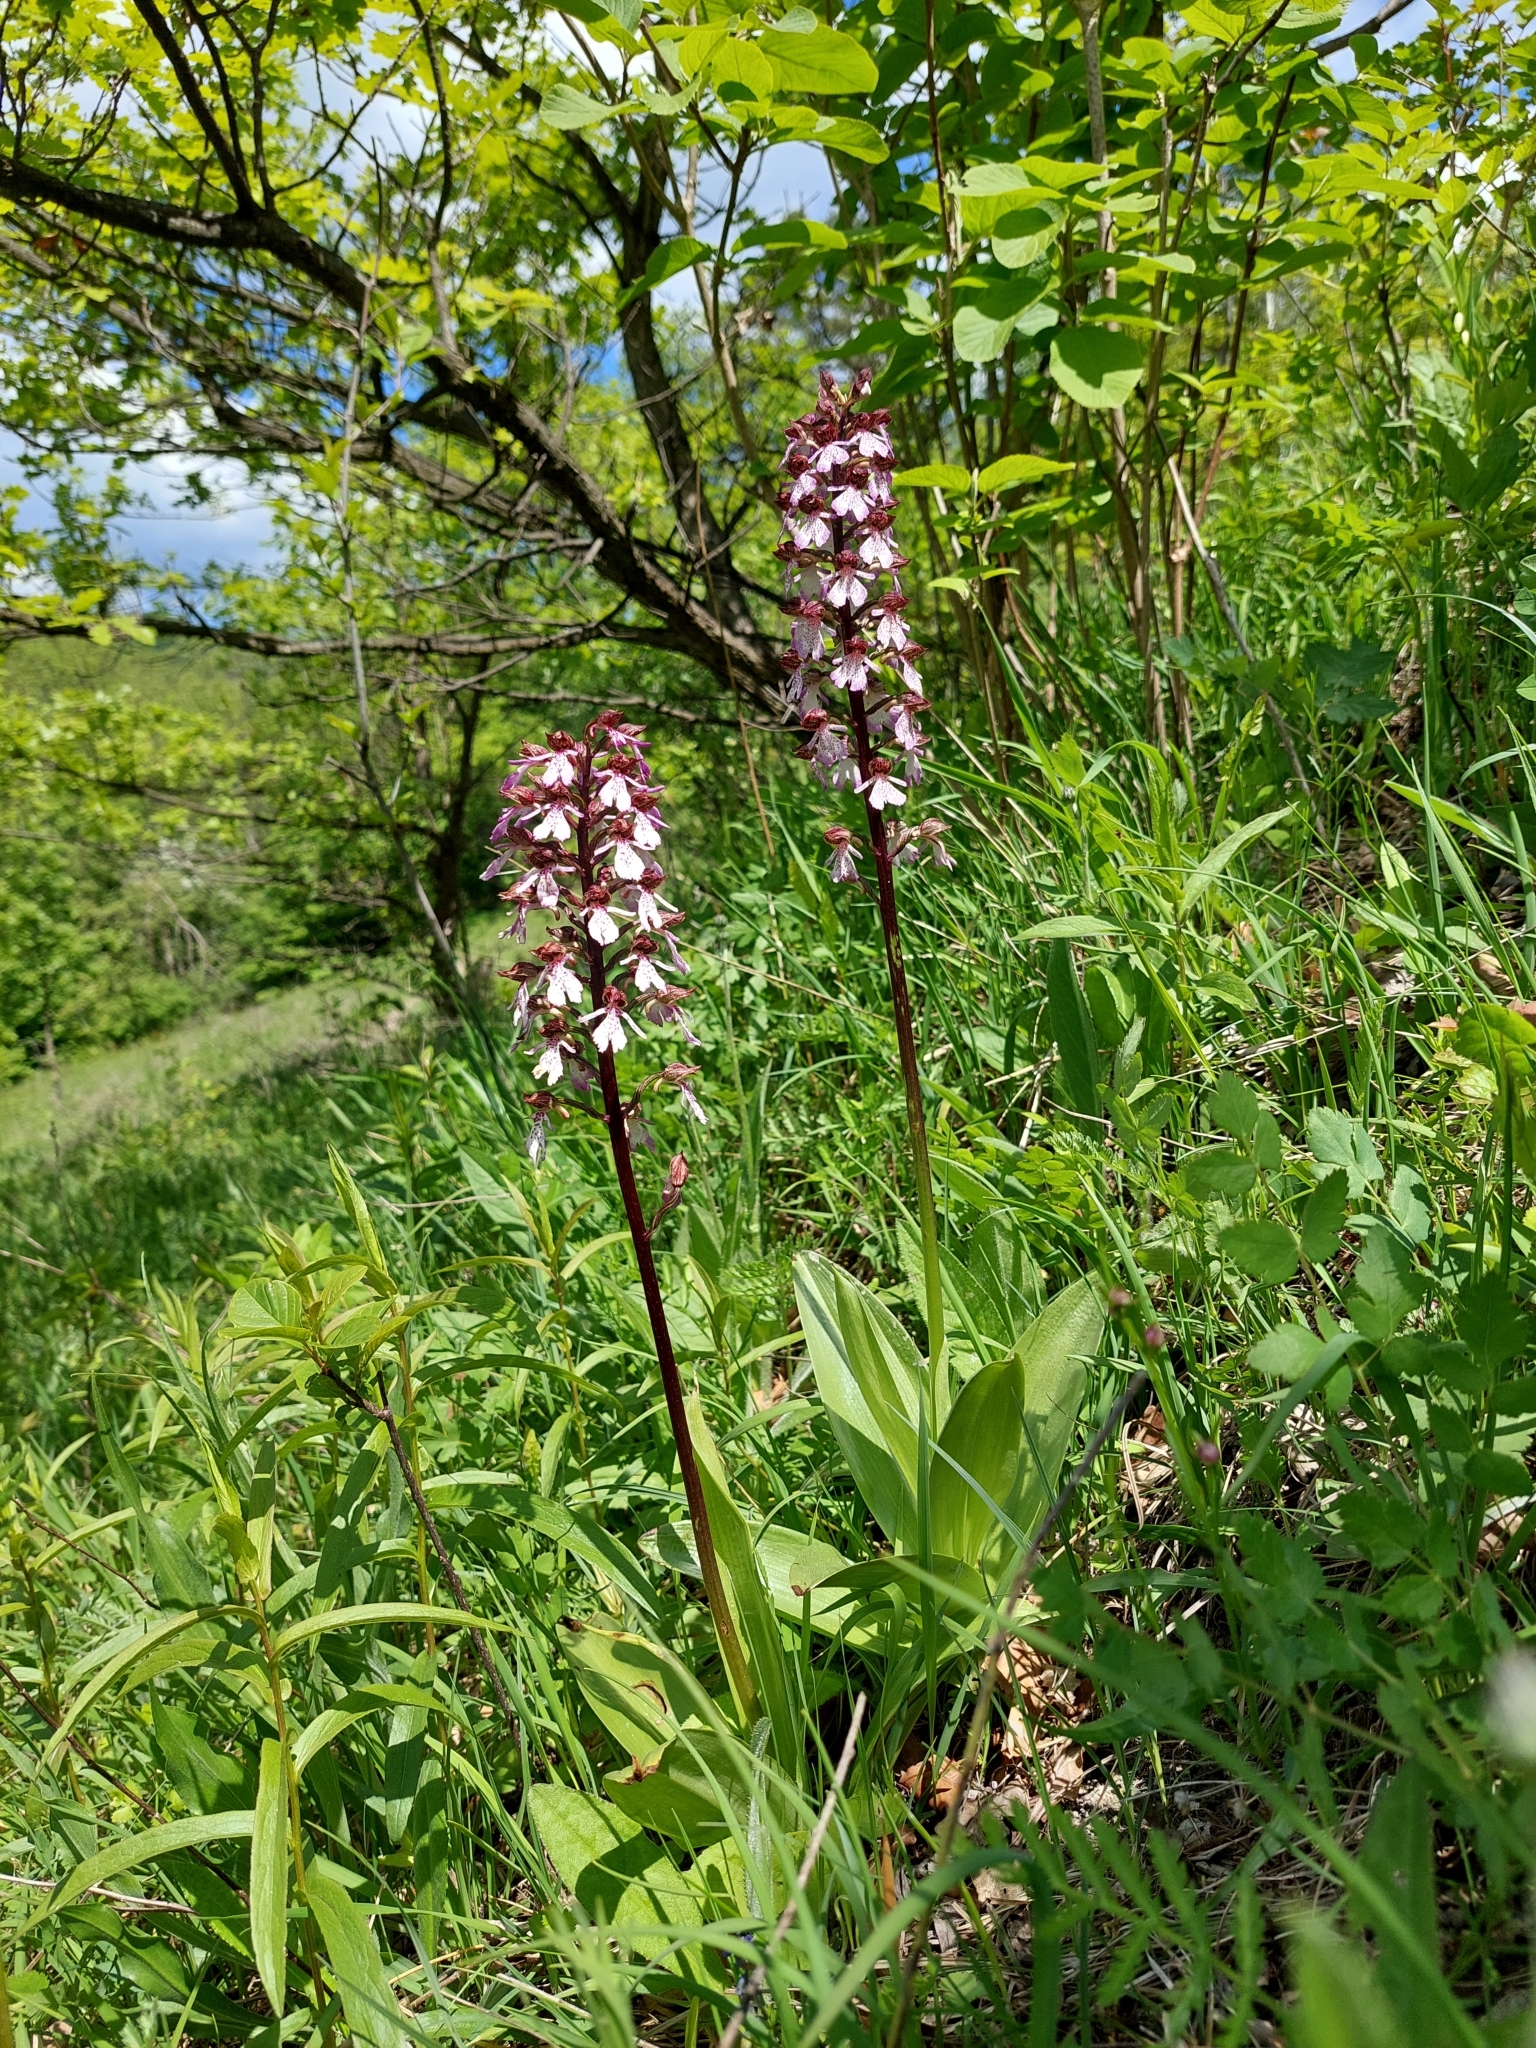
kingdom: Plantae
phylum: Tracheophyta
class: Liliopsida
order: Asparagales
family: Orchidaceae
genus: Orchis
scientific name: Orchis purpurea
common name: Lady orchid
